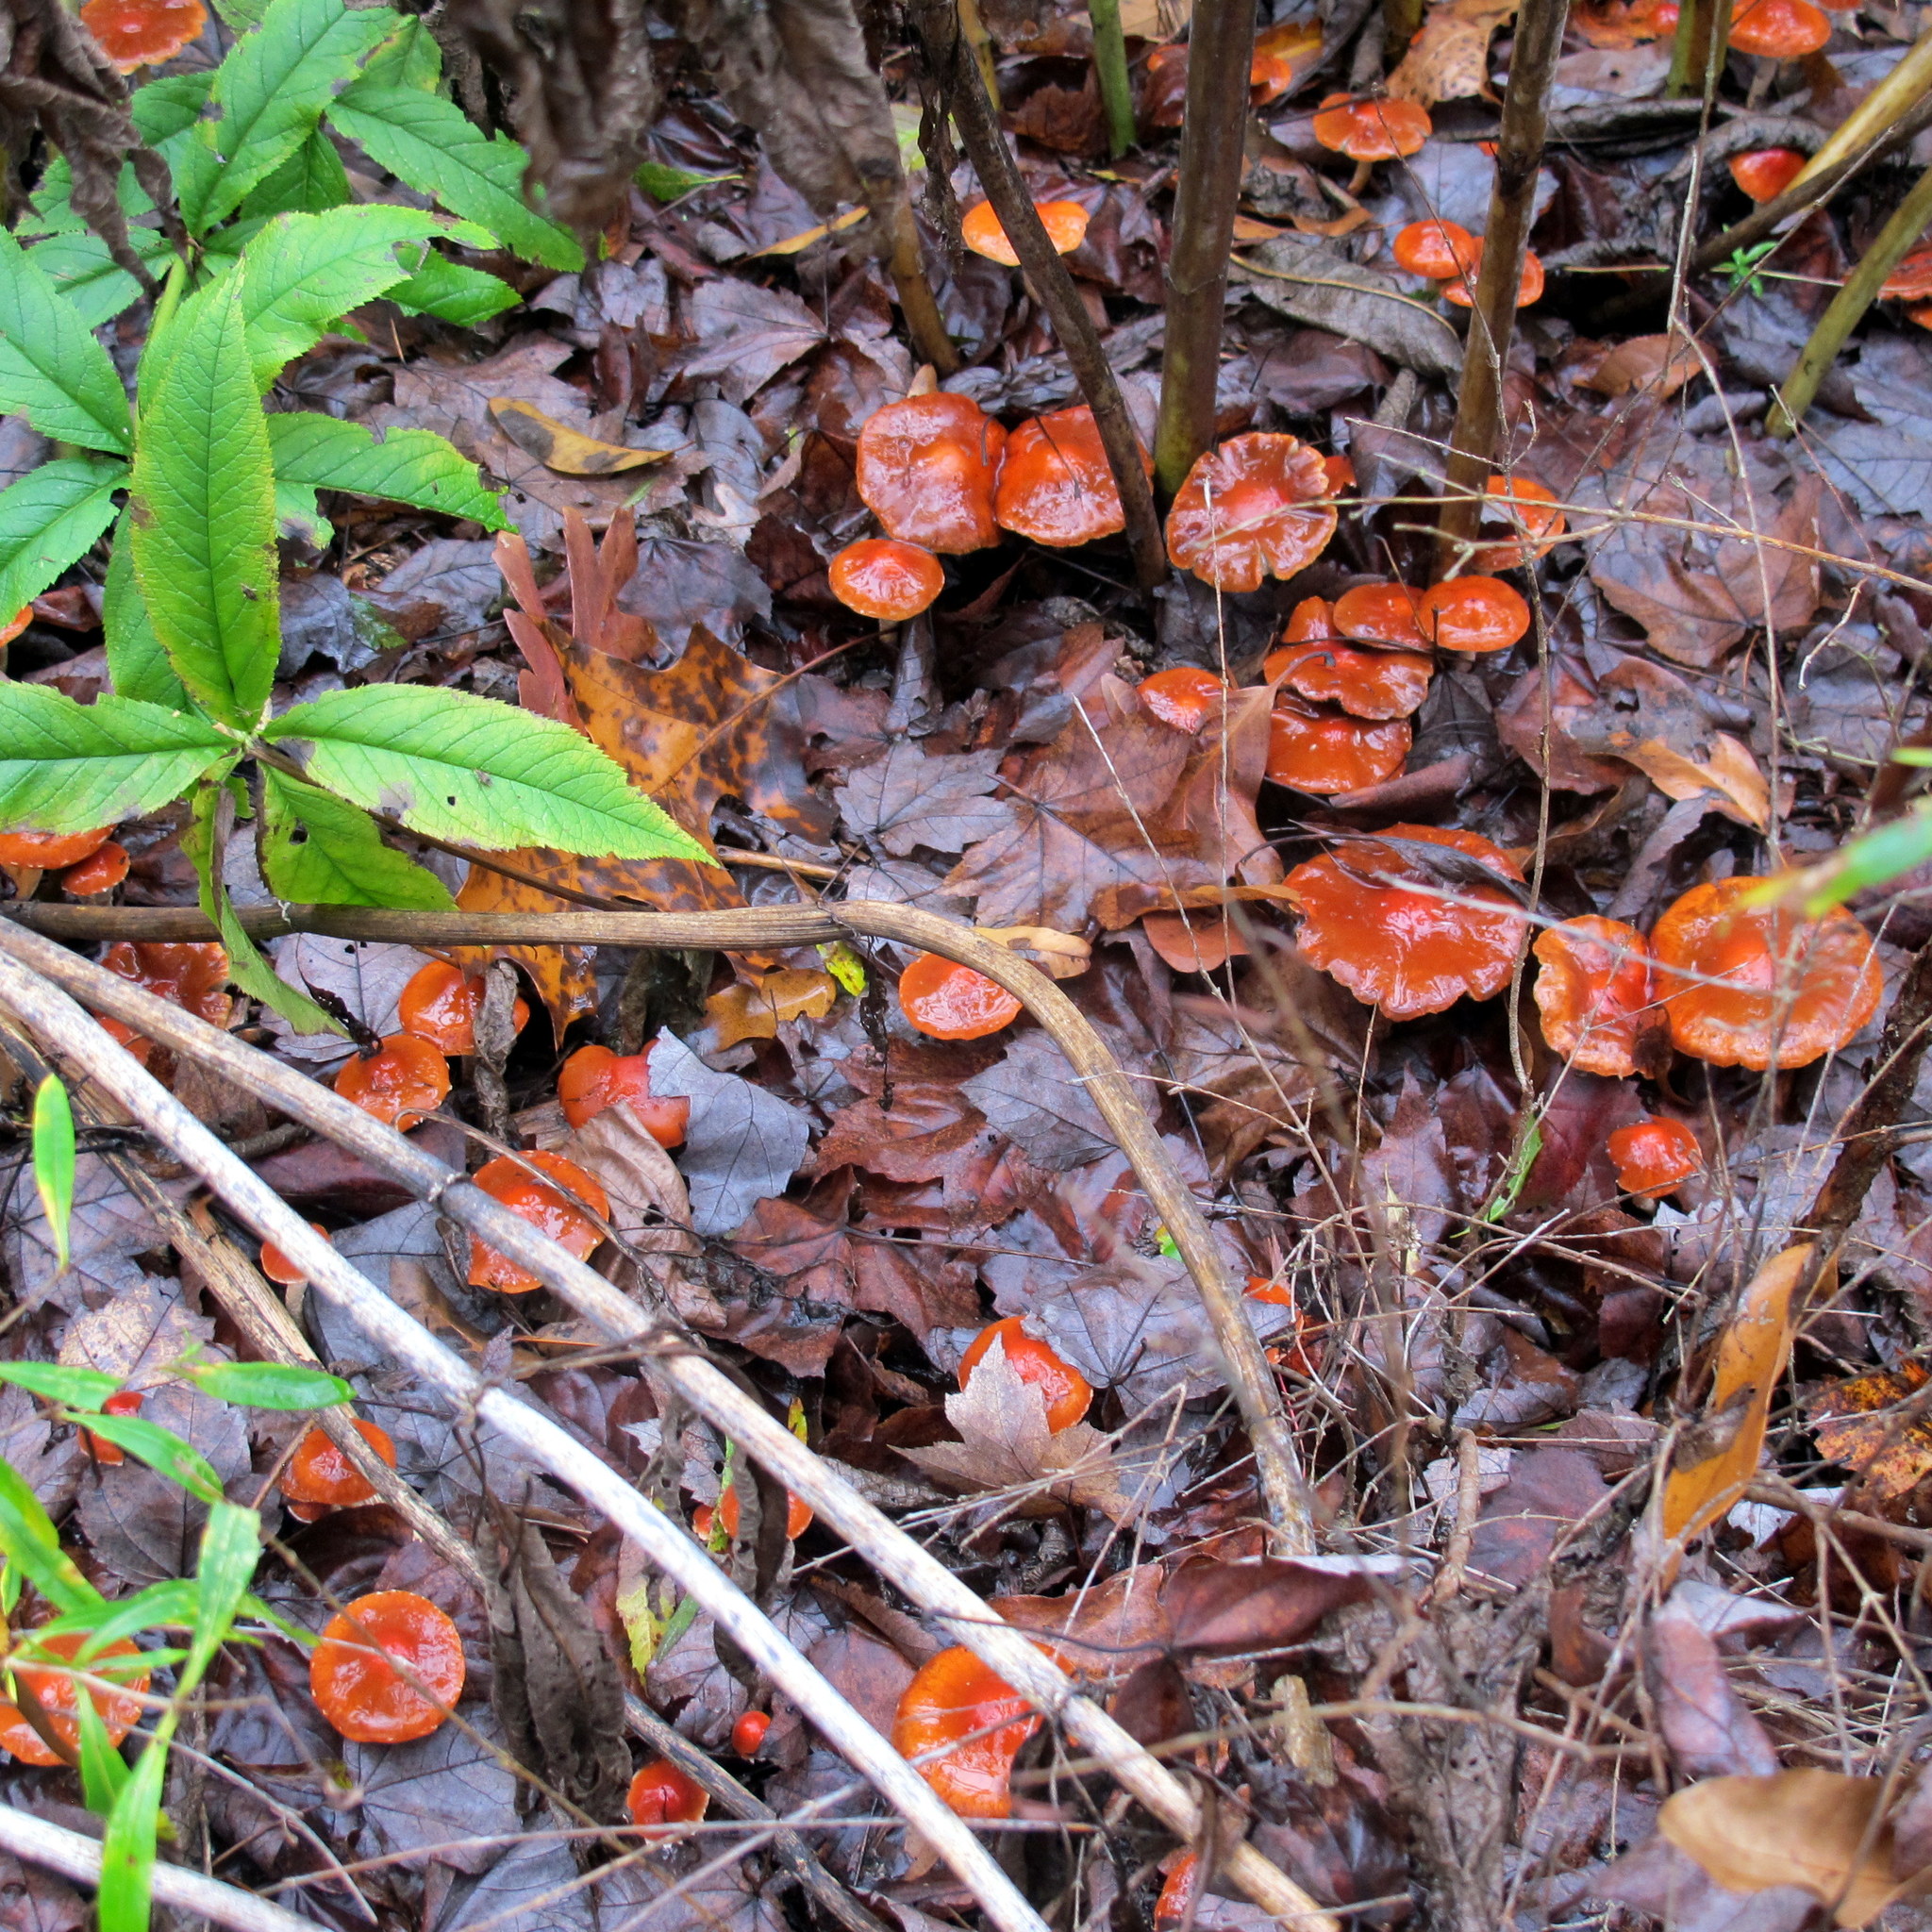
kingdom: Fungi
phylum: Basidiomycota
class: Agaricomycetes
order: Agaricales
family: Strophariaceae
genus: Leratiomyces
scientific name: Leratiomyces ceres
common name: Redlead roundhead
